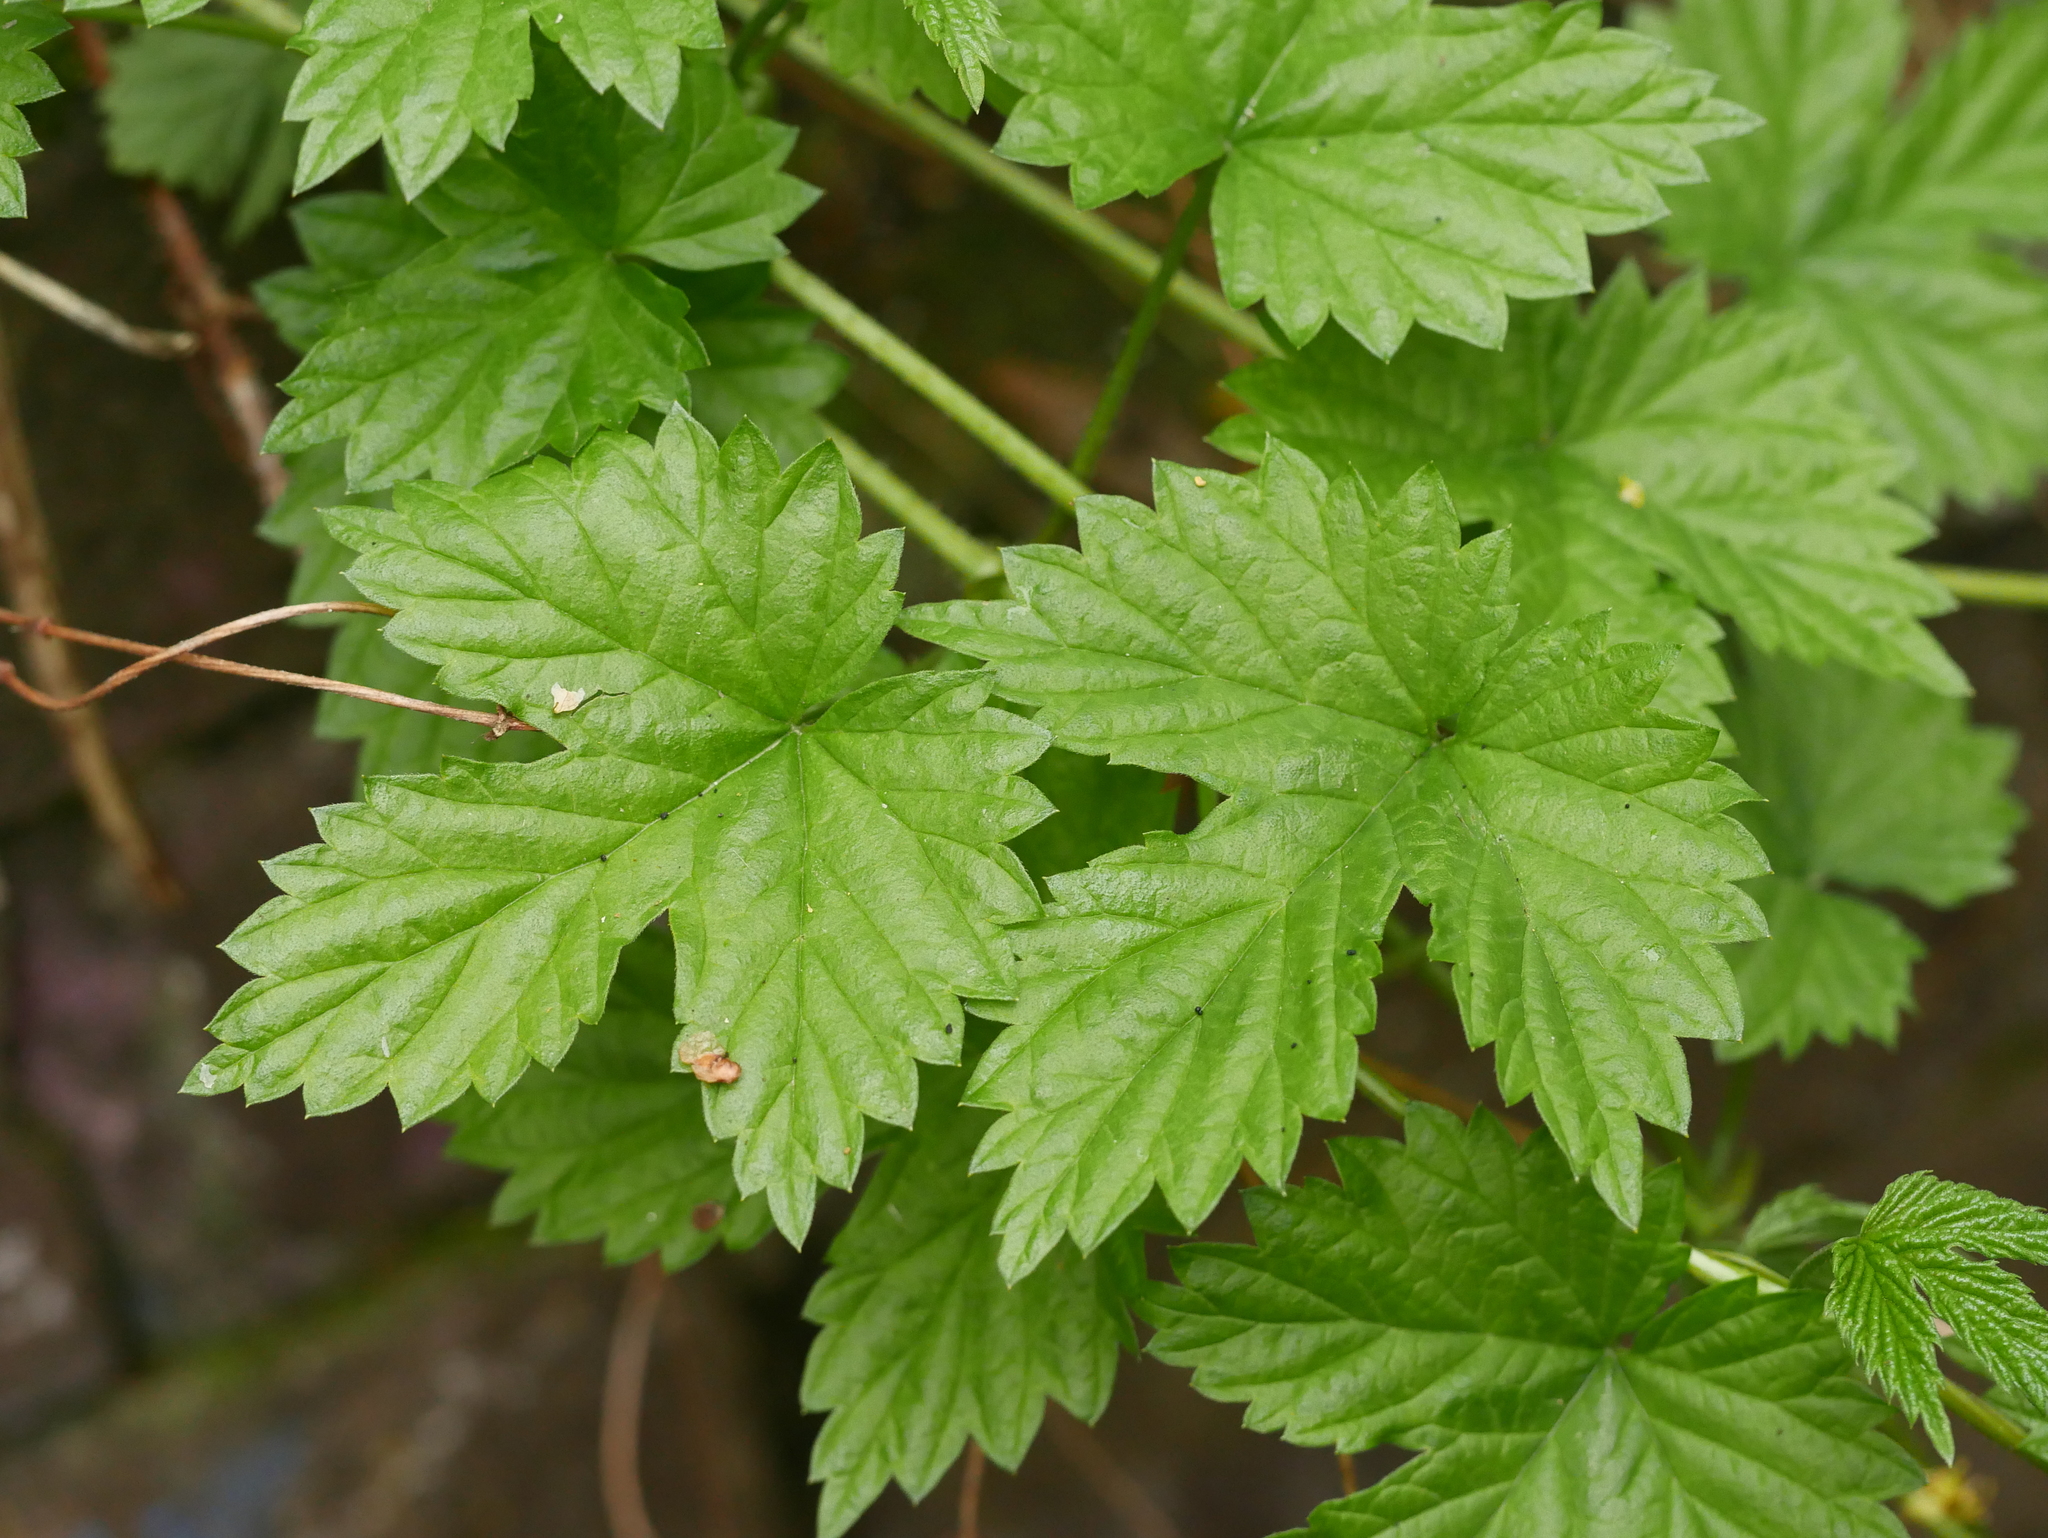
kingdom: Plantae
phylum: Tracheophyta
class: Magnoliopsida
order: Rosales
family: Cannabaceae
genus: Humulus
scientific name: Humulus lupulus
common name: Hop
